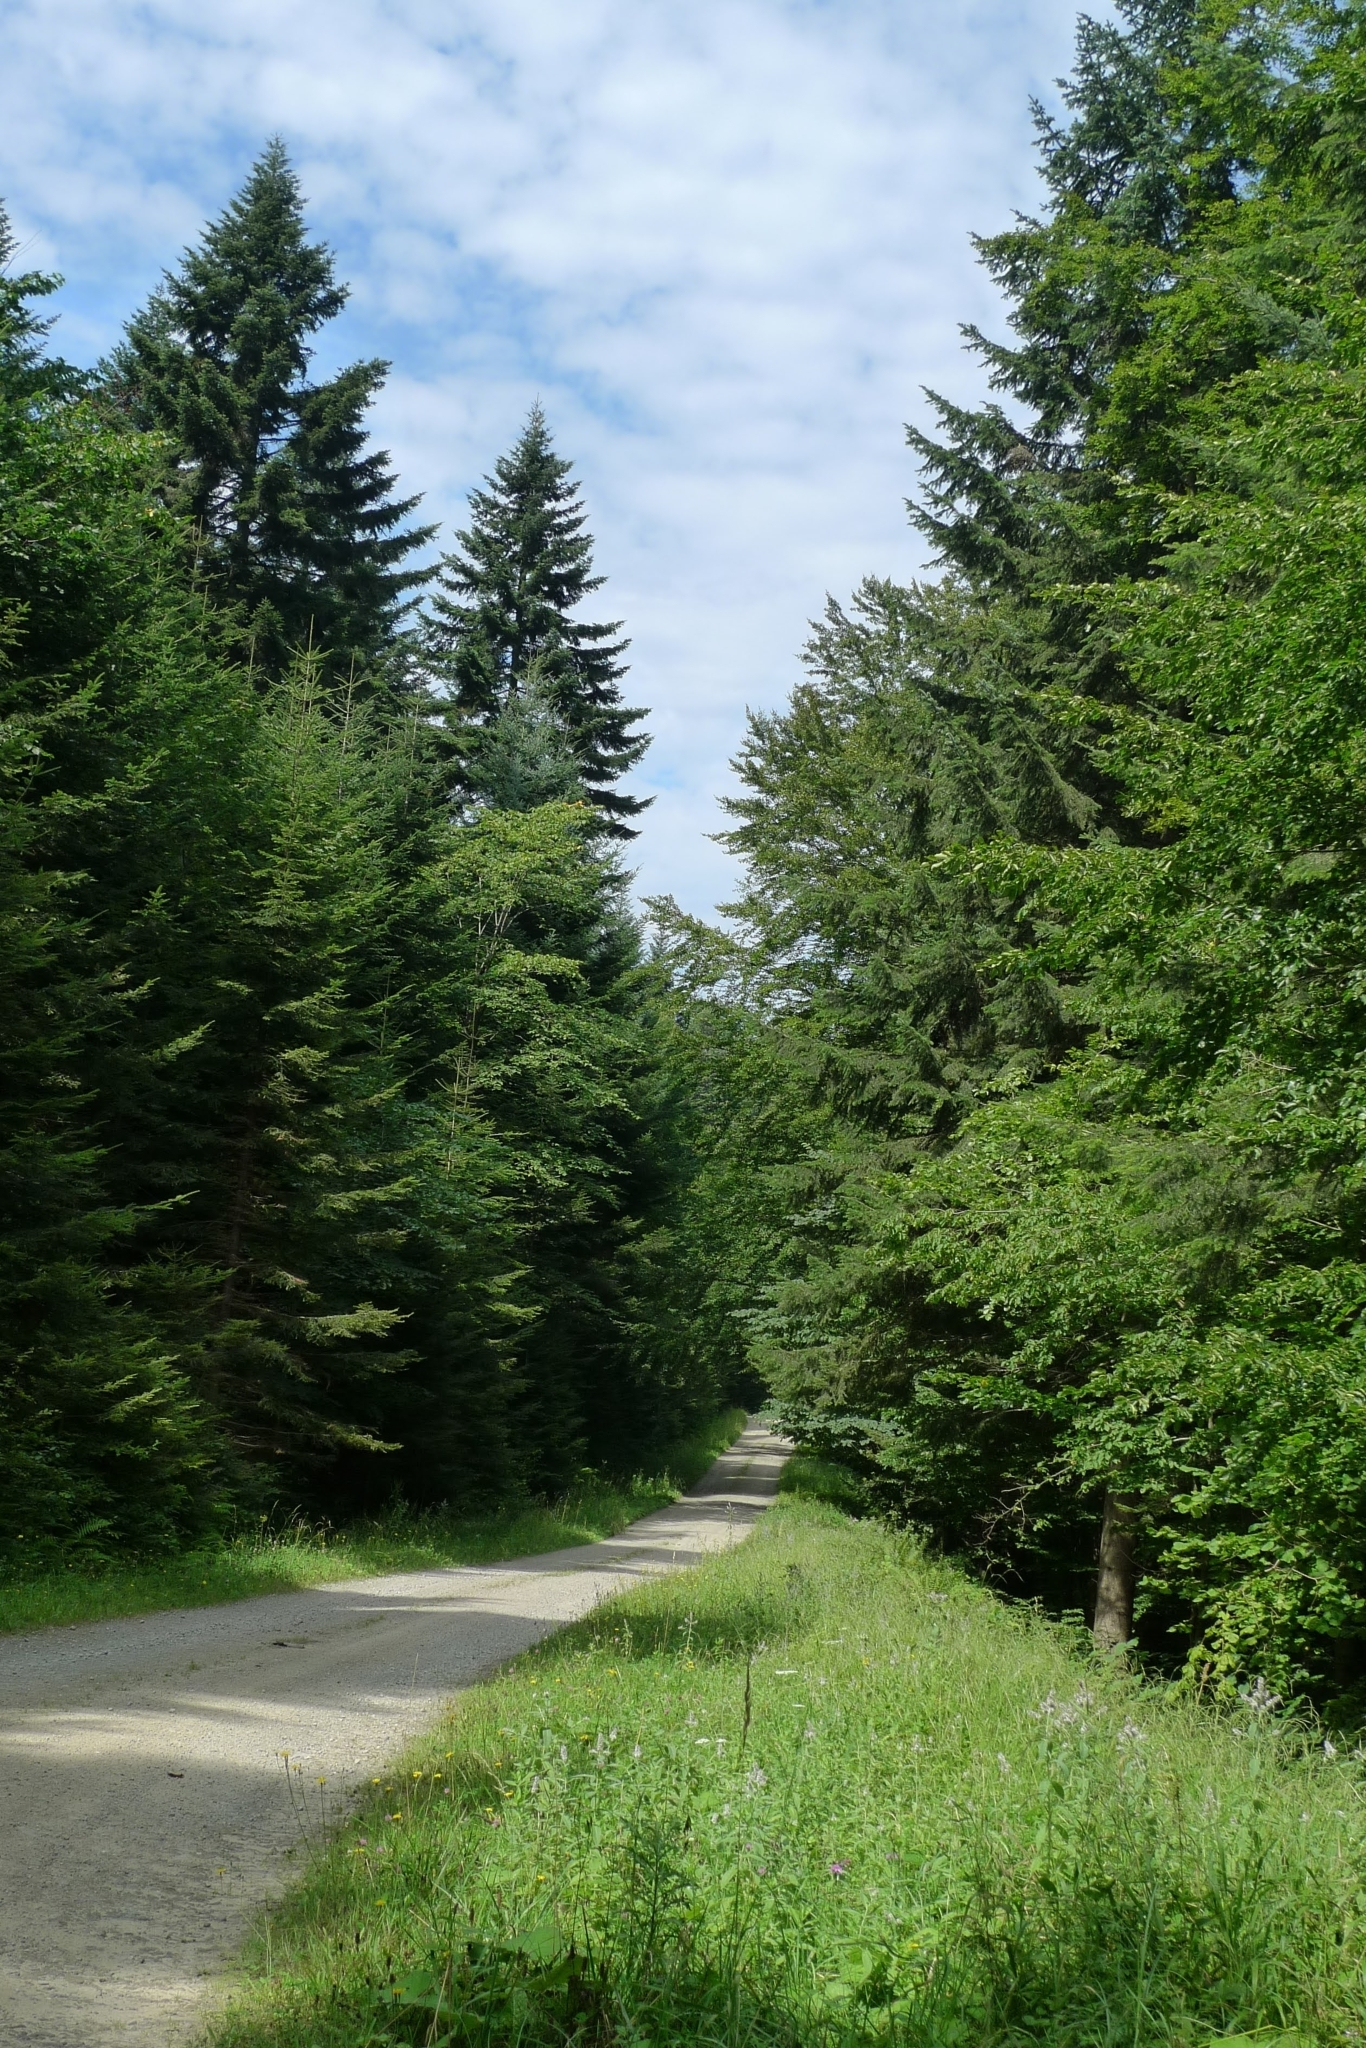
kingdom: Animalia
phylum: Chordata
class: Aves
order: Passeriformes
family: Corvidae
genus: Corvus
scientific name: Corvus corax
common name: Common raven
